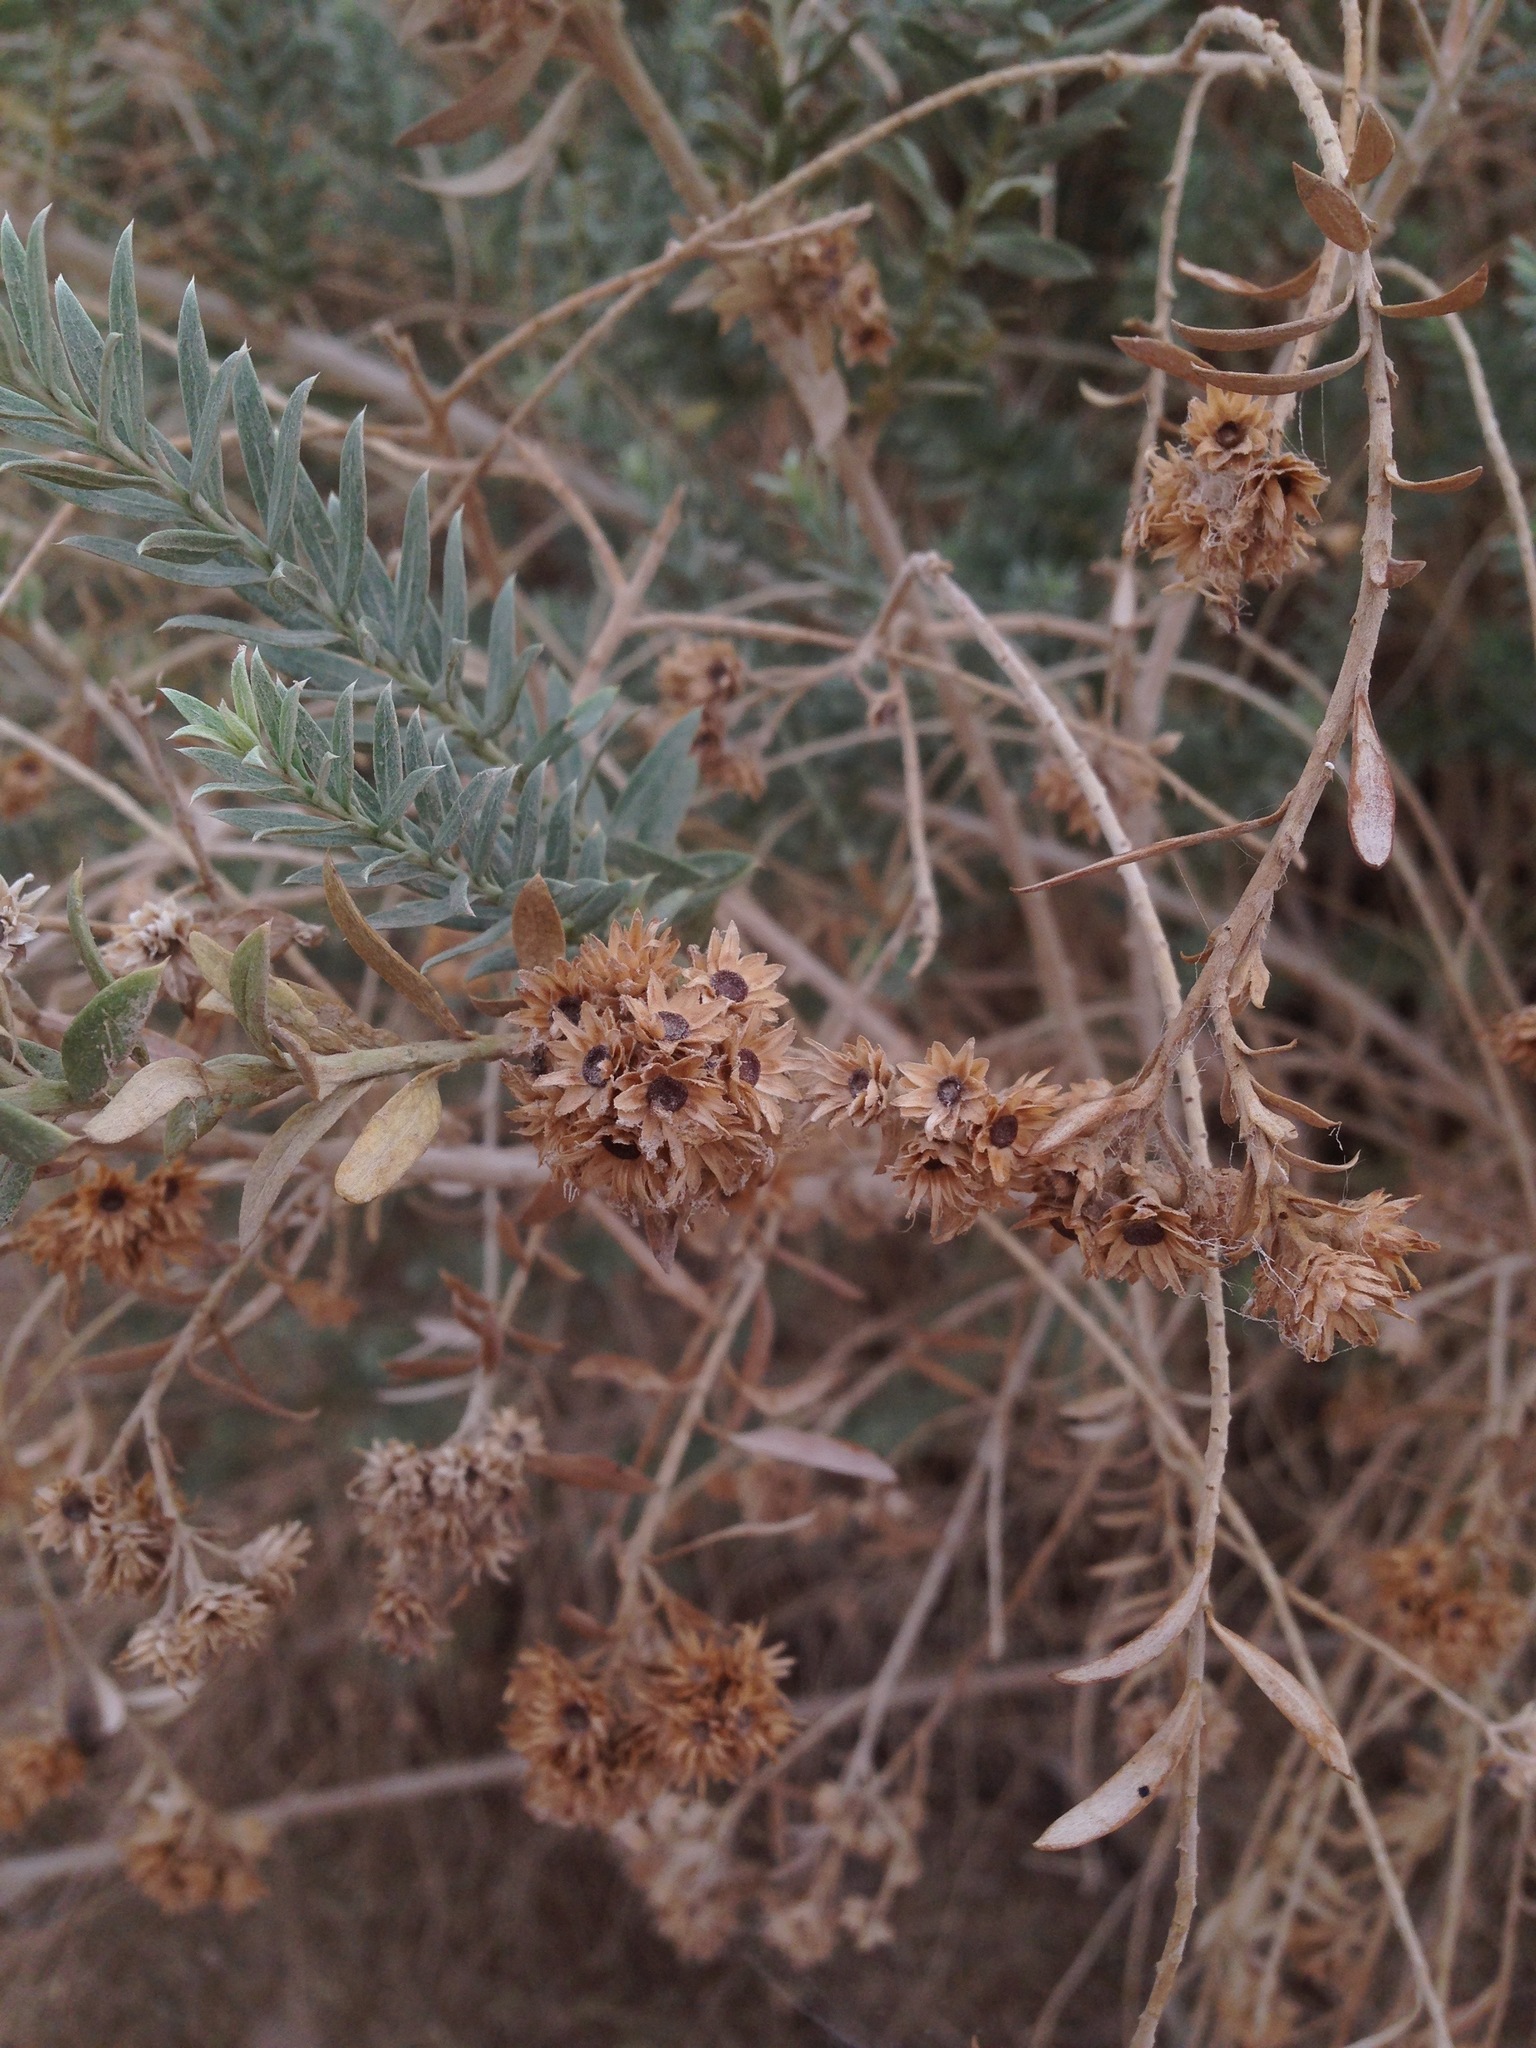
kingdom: Plantae
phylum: Tracheophyta
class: Magnoliopsida
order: Asterales
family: Asteraceae
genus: Pluchea
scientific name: Pluchea sericea
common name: Arrow-weed
